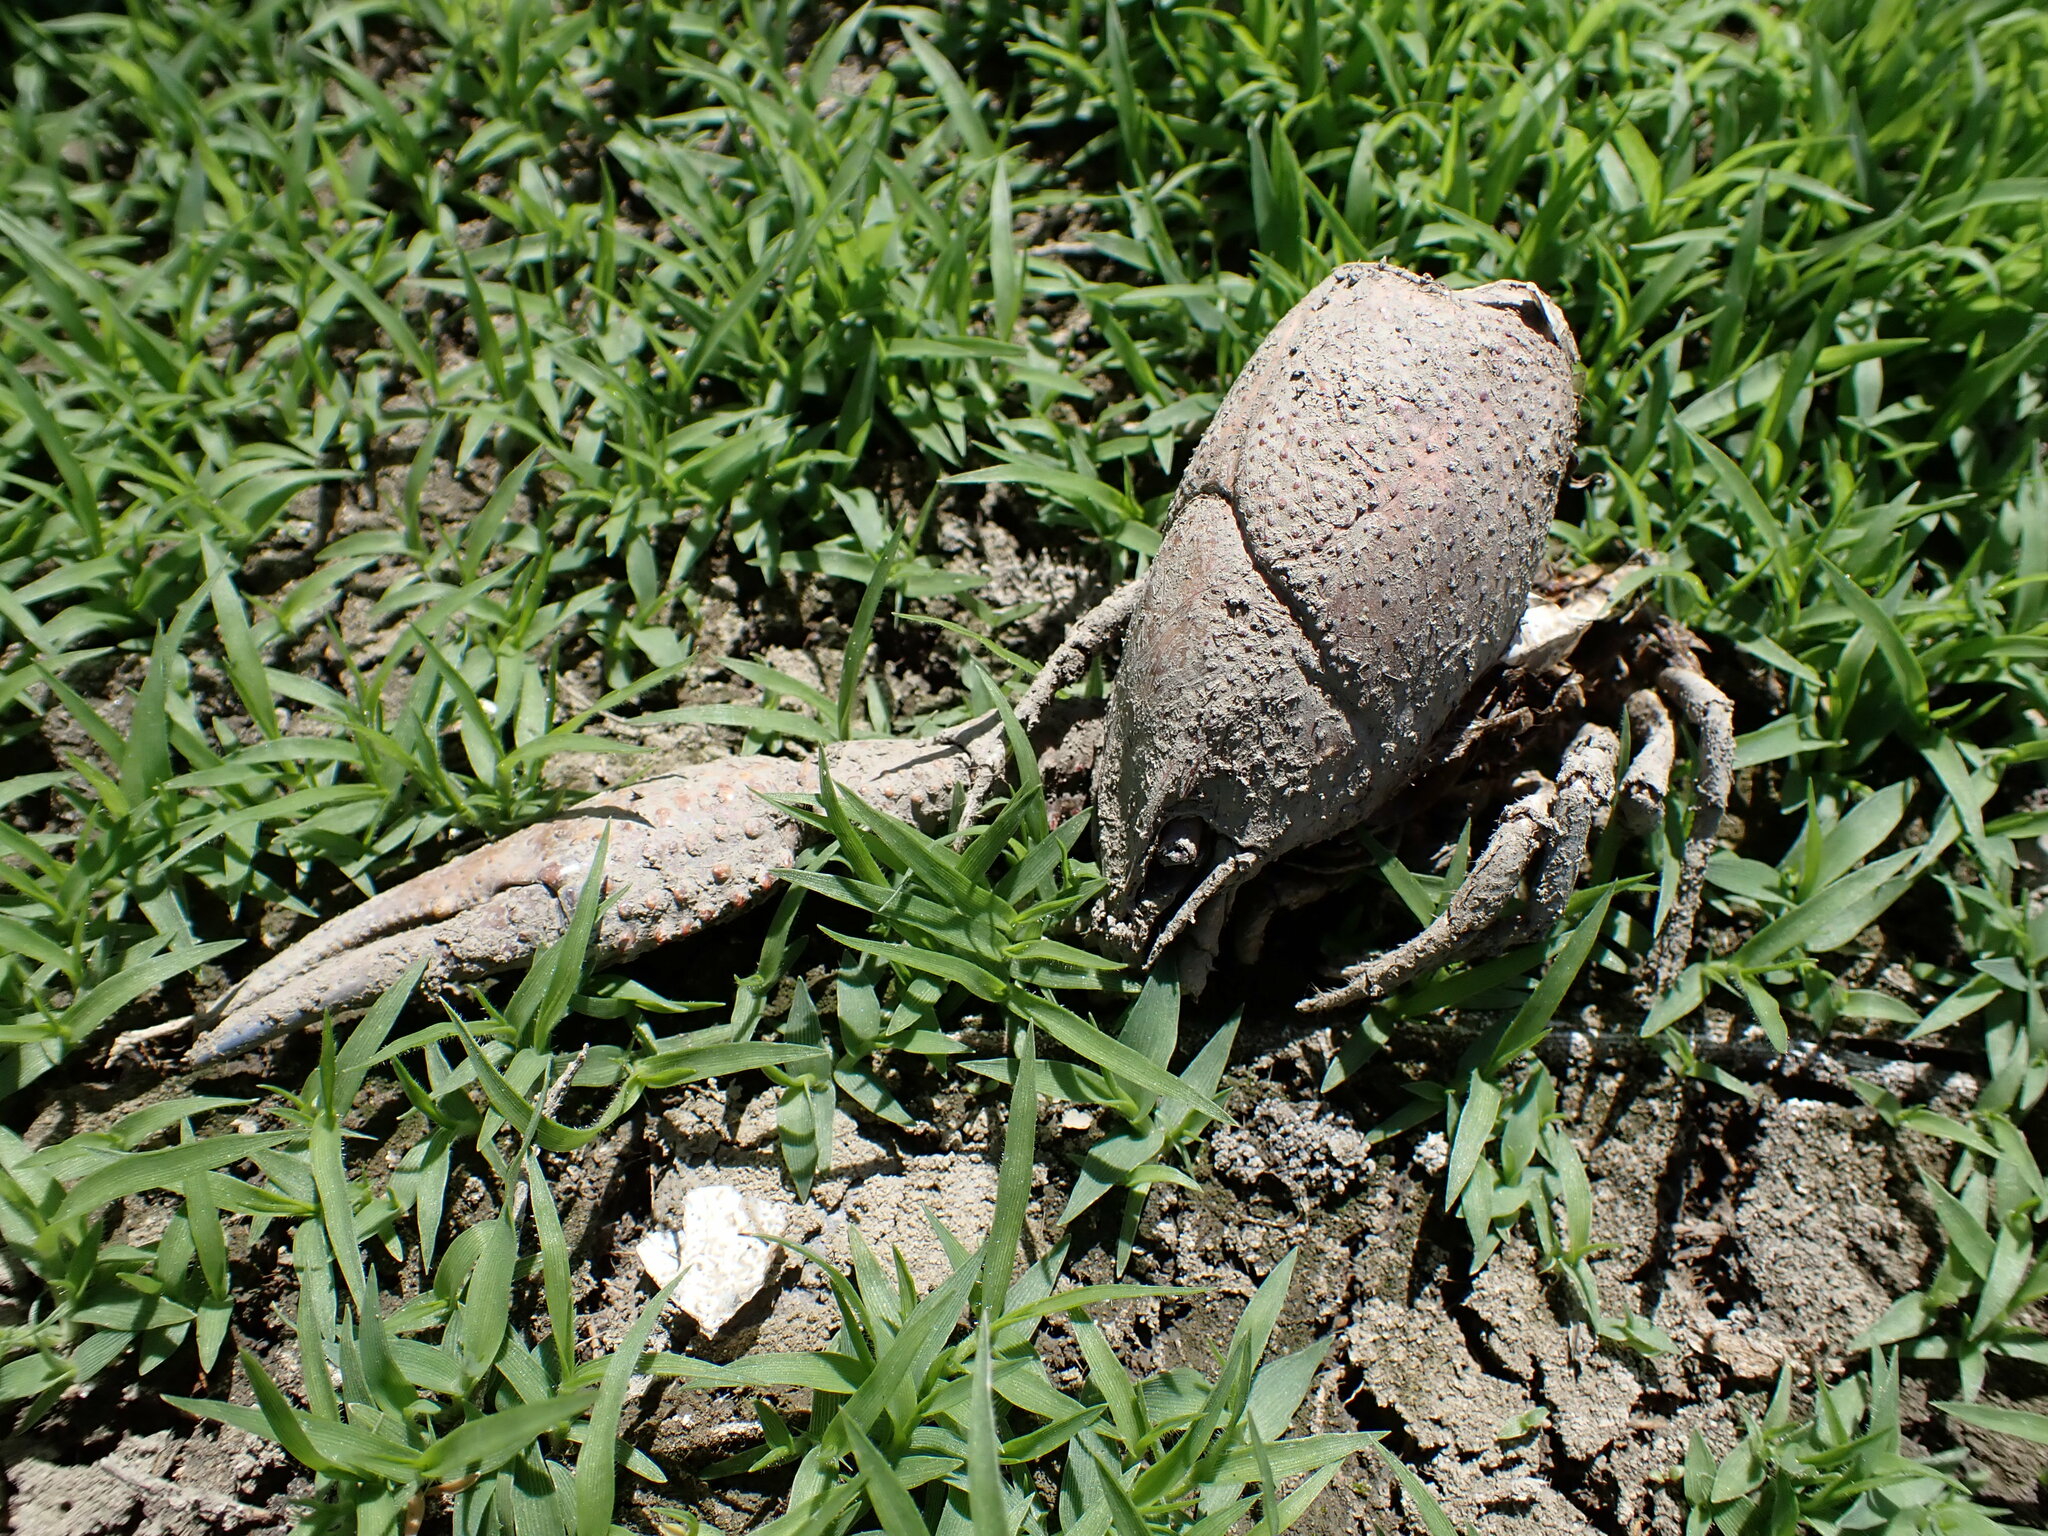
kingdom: Animalia
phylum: Arthropoda
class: Malacostraca
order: Decapoda
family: Cambaridae
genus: Procambarus
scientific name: Procambarus clarkii
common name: Red swamp crayfish
